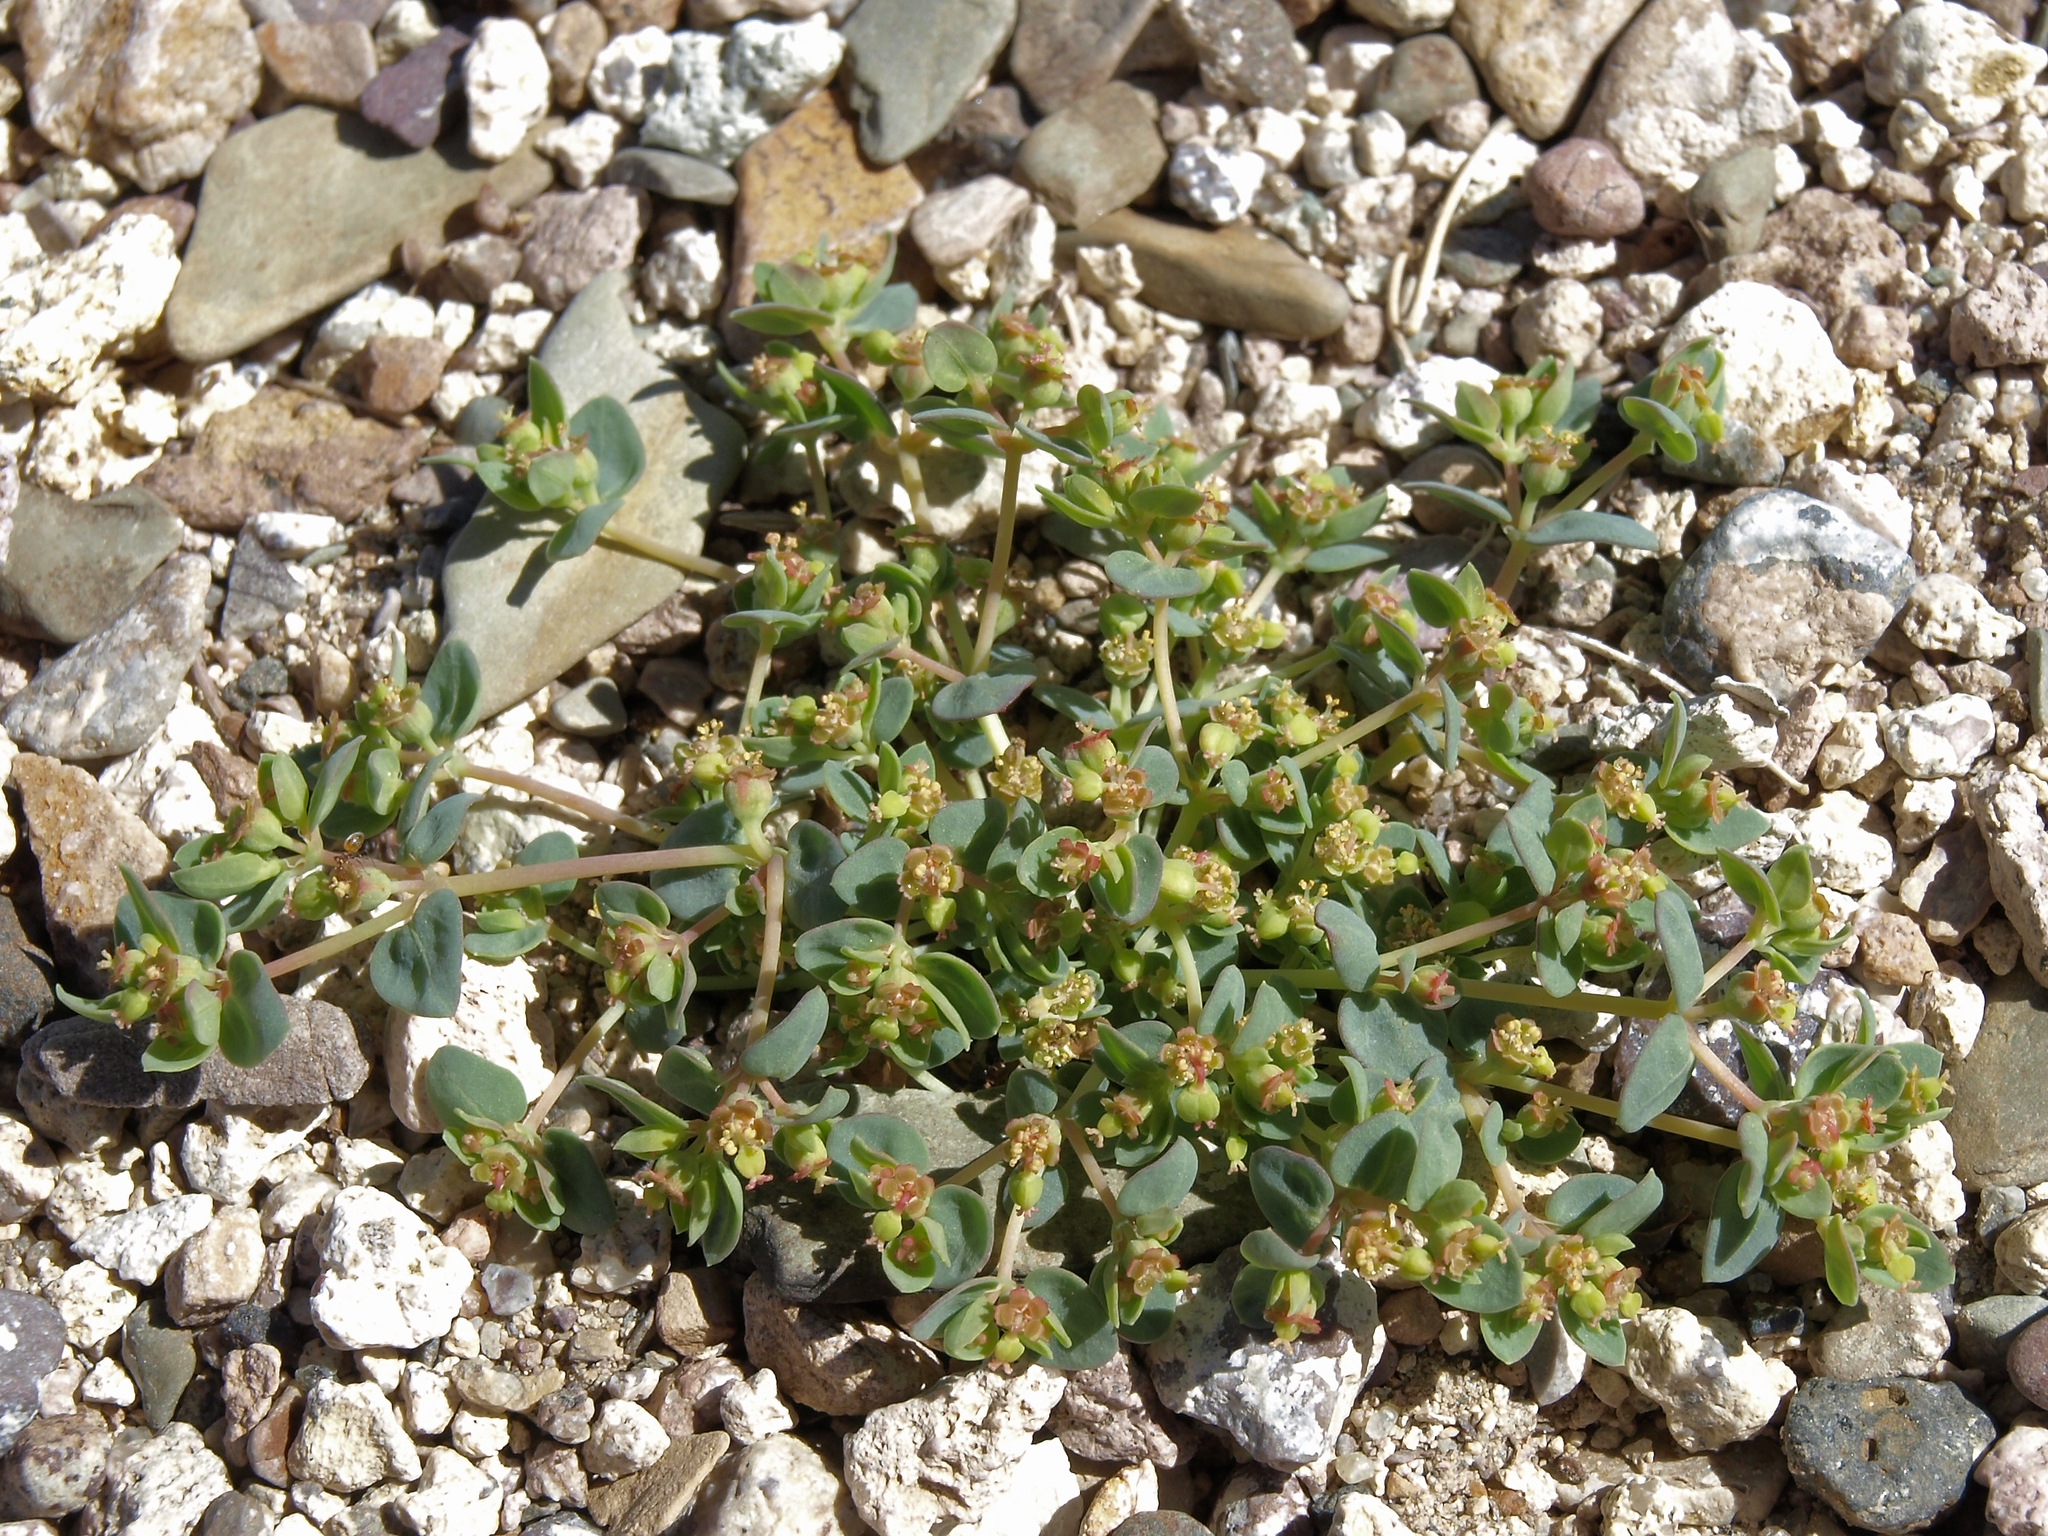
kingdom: Plantae
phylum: Tracheophyta
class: Magnoliopsida
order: Malpighiales
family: Euphorbiaceae
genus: Euphorbia
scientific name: Euphorbia fendleri
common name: Fendler's euphorbia
